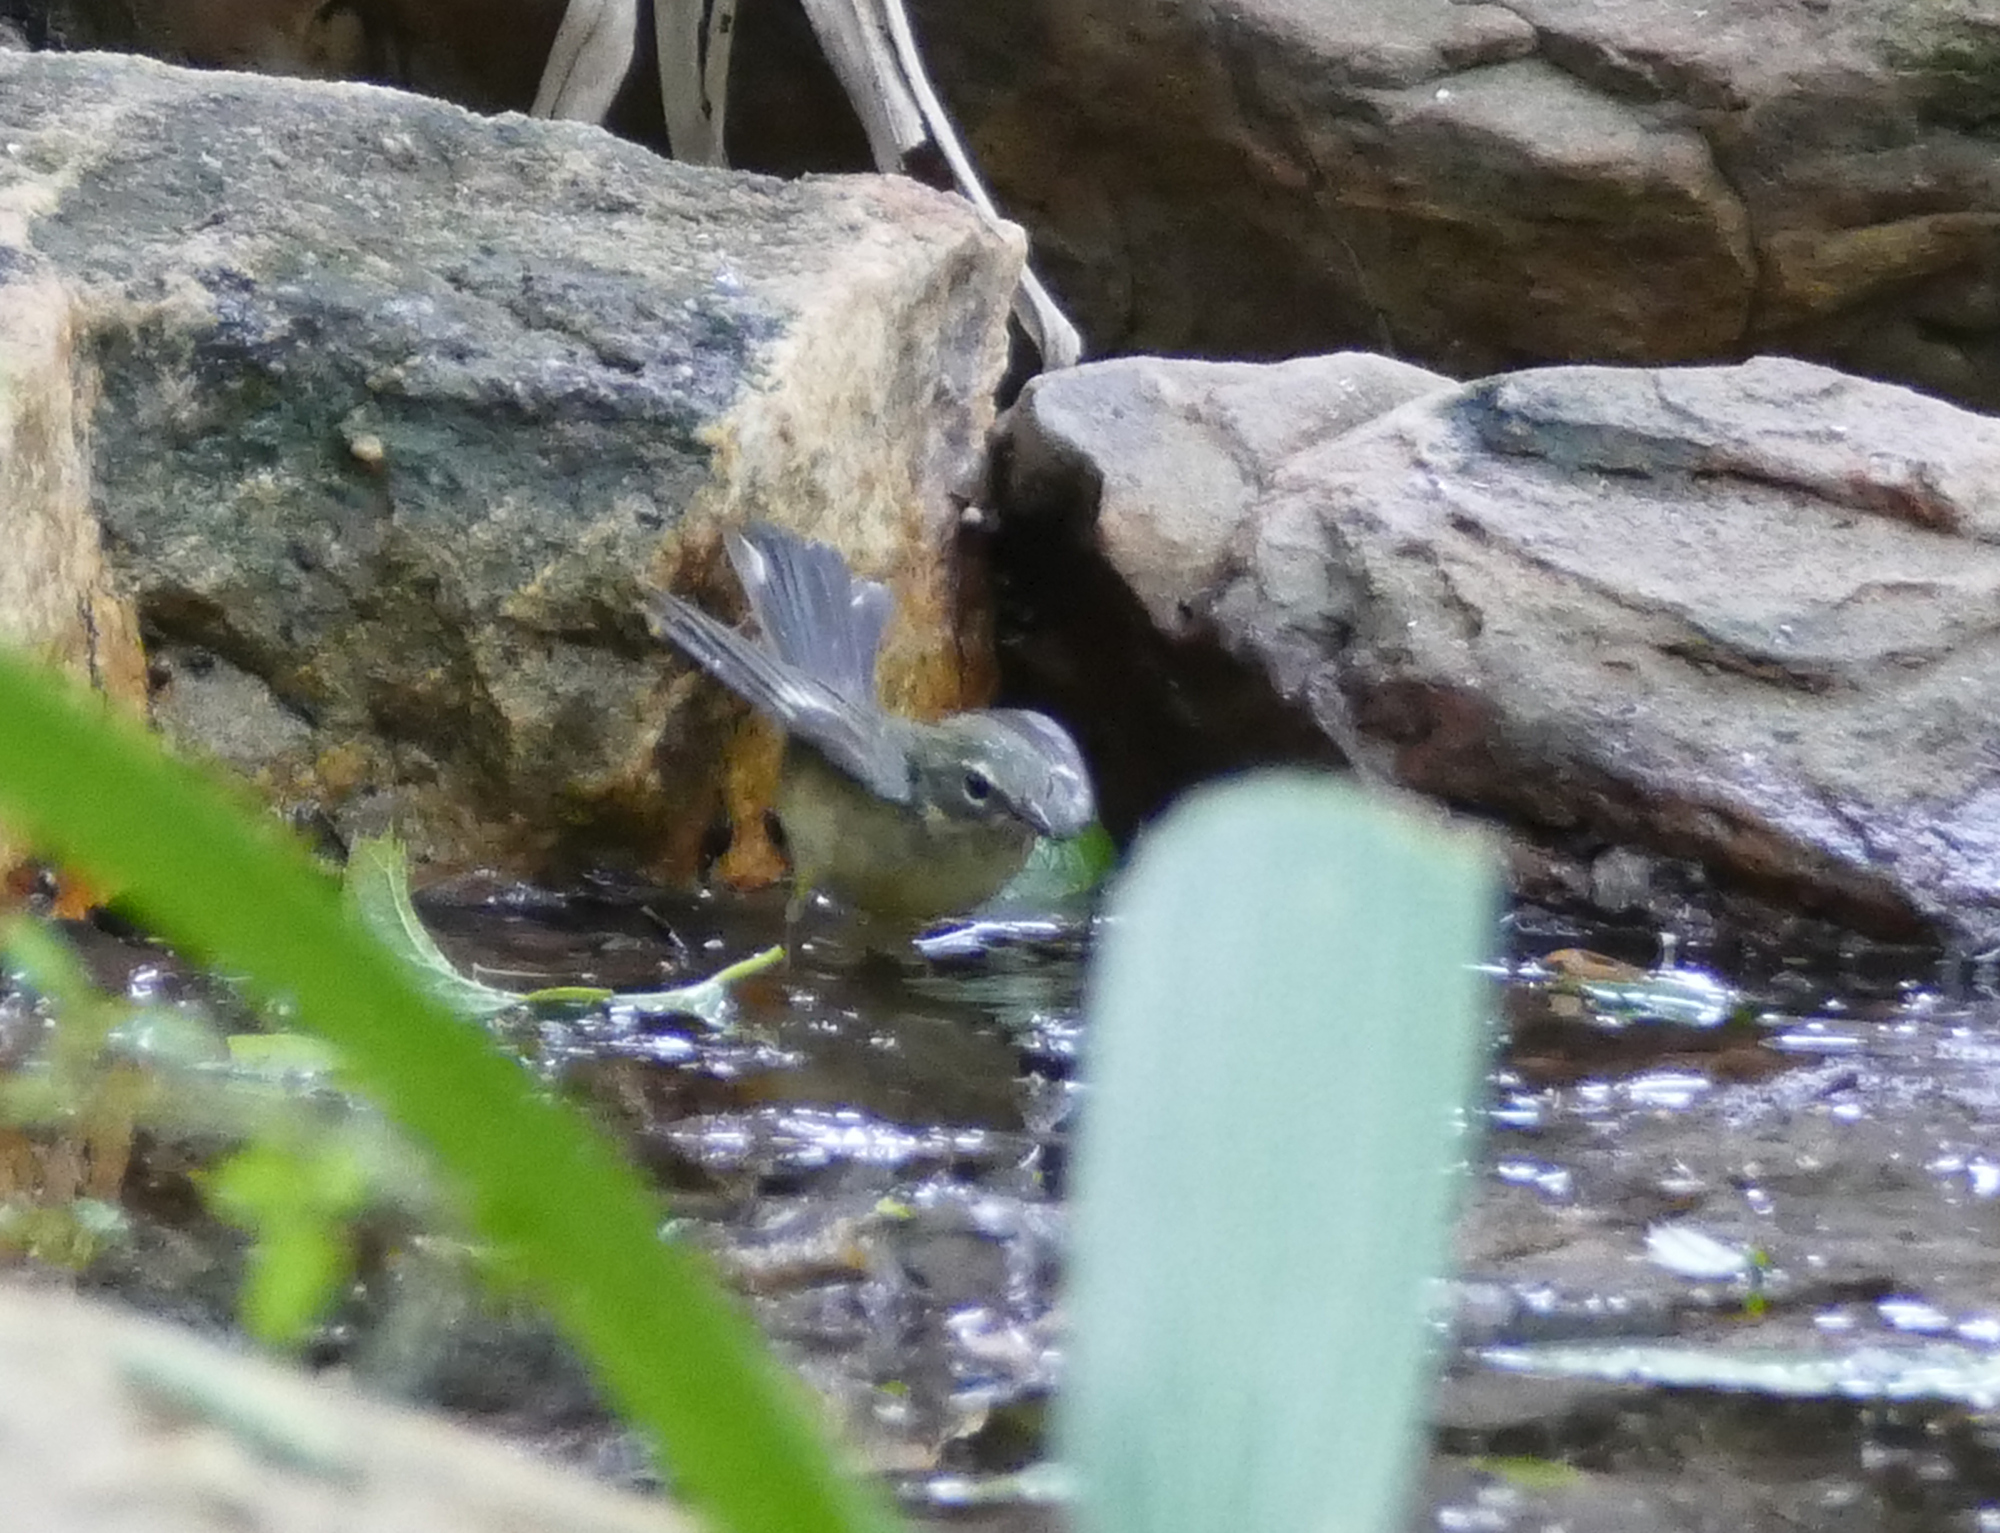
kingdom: Animalia
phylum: Chordata
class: Aves
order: Passeriformes
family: Parulidae
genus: Setophaga
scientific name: Setophaga caerulescens
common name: Black-throated blue warbler
